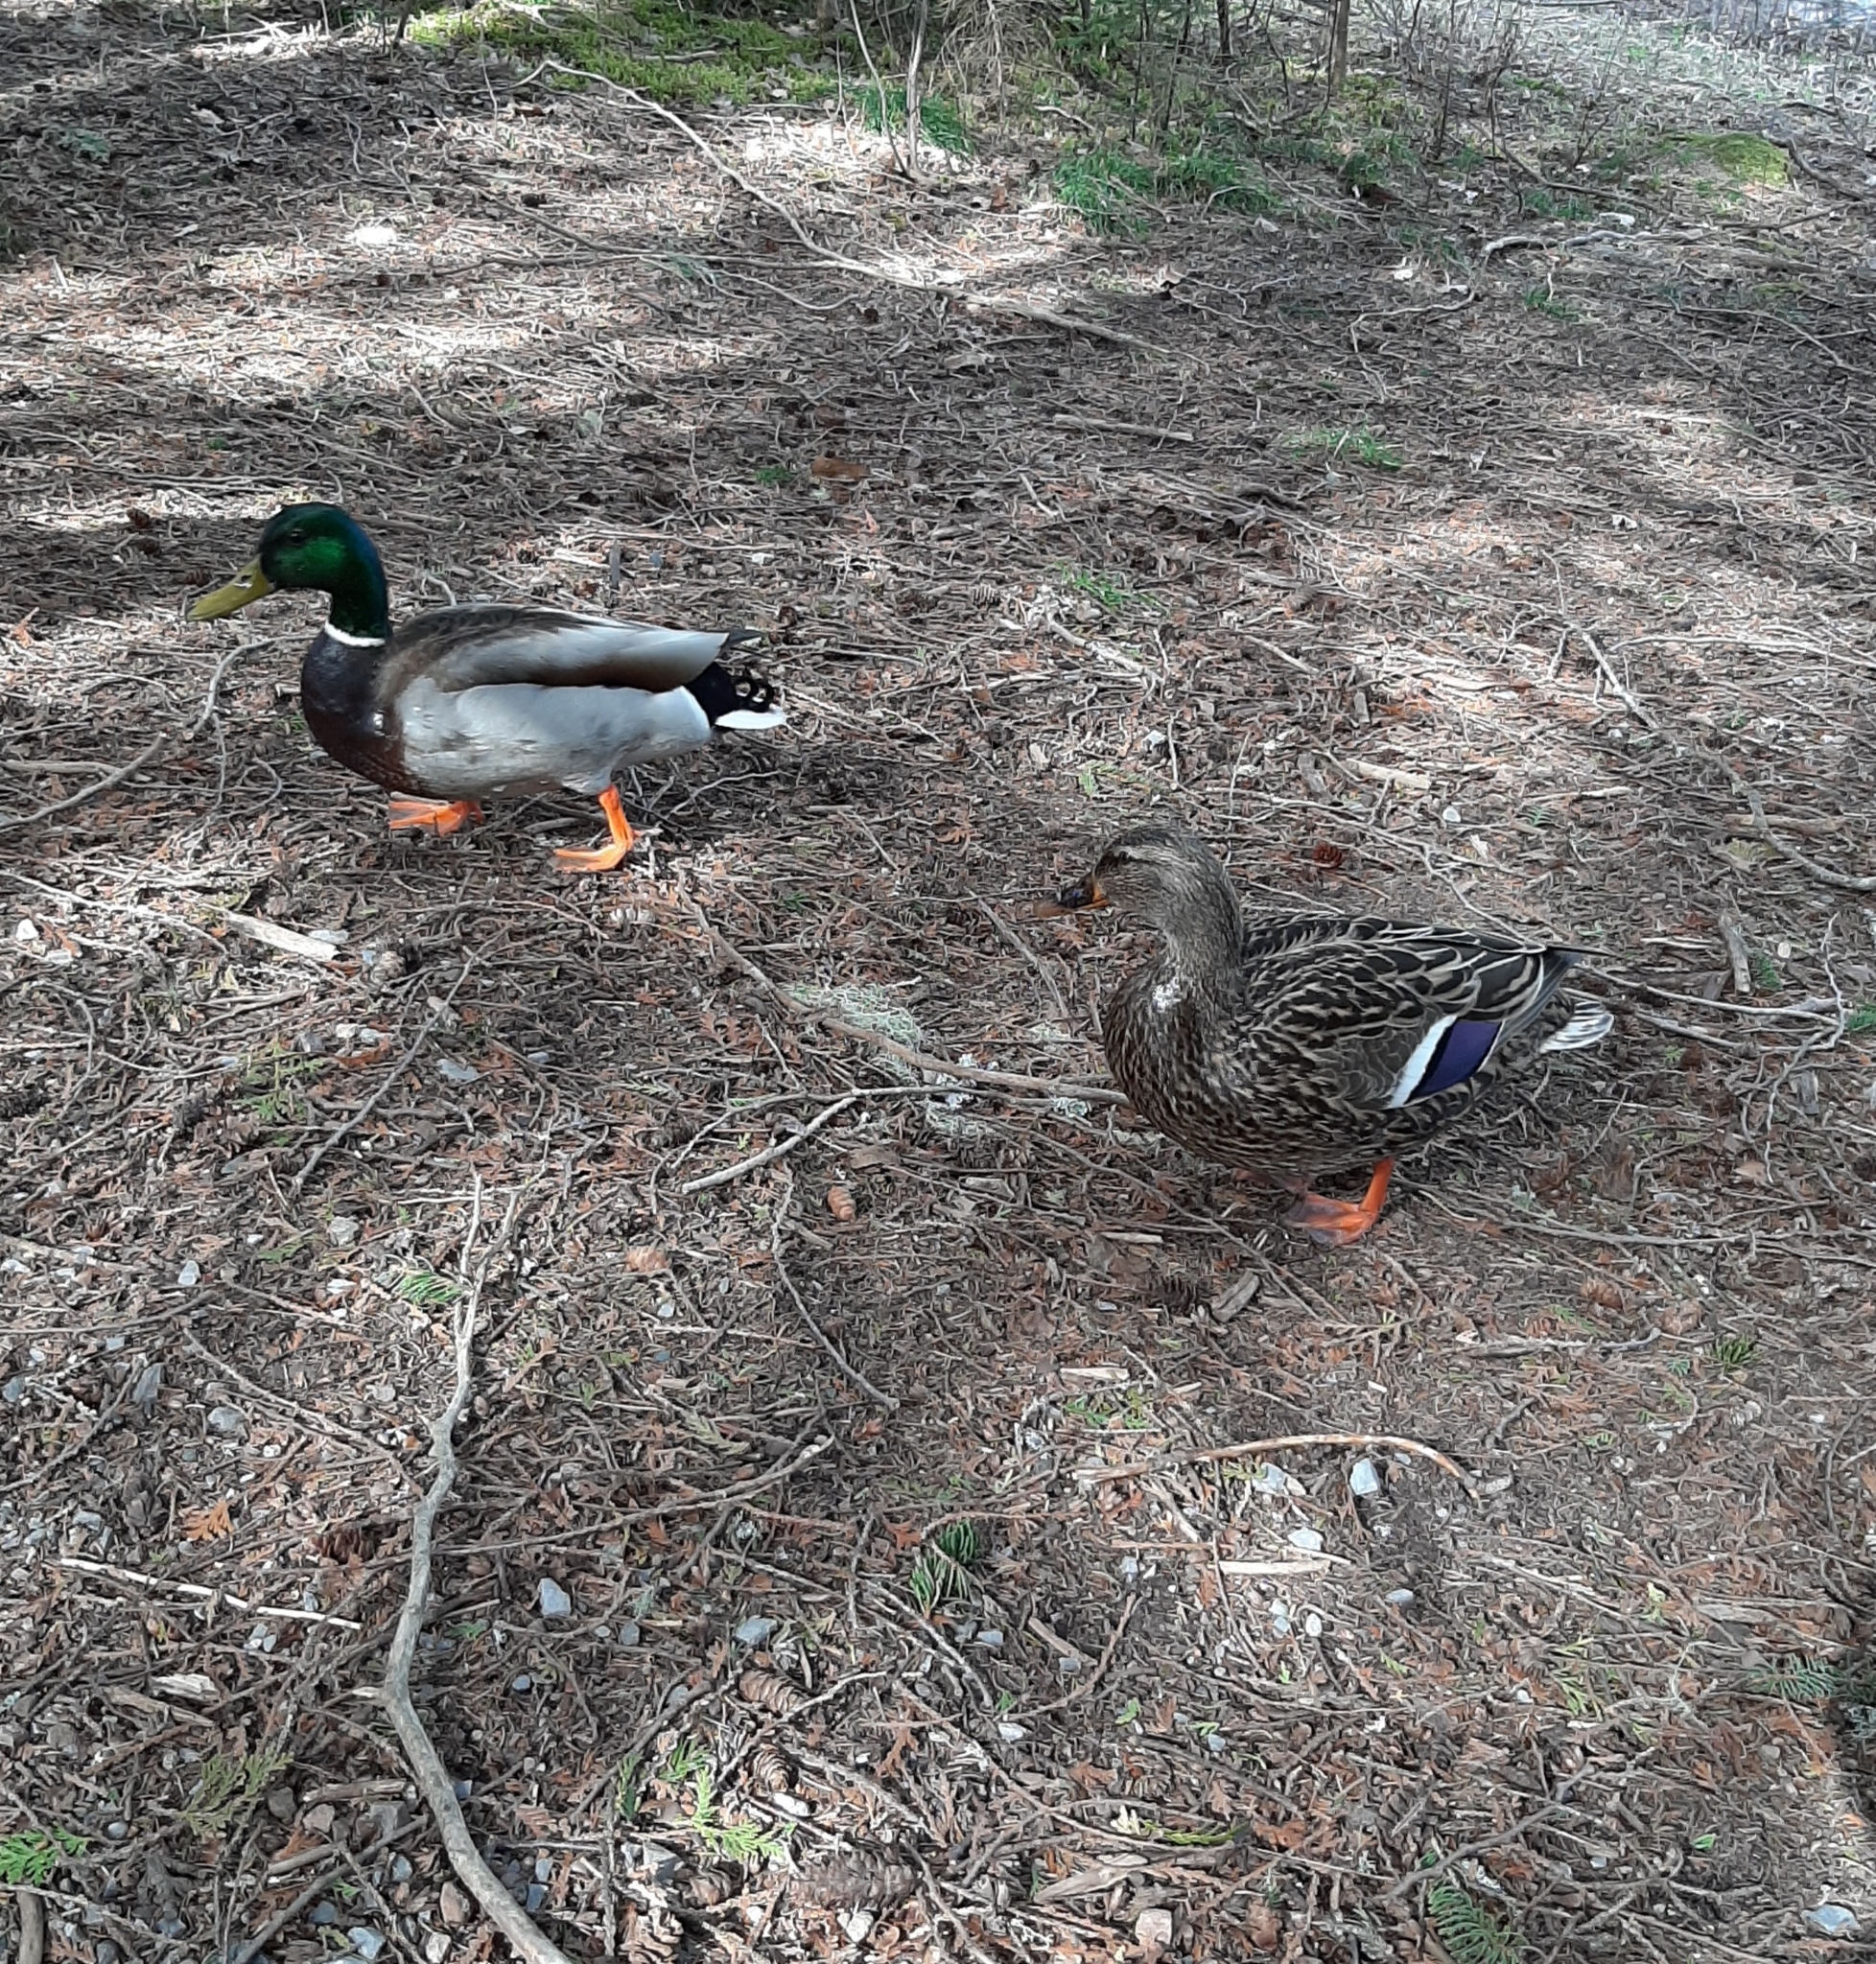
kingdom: Animalia
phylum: Chordata
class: Aves
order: Anseriformes
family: Anatidae
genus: Anas
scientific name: Anas platyrhynchos
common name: Mallard
